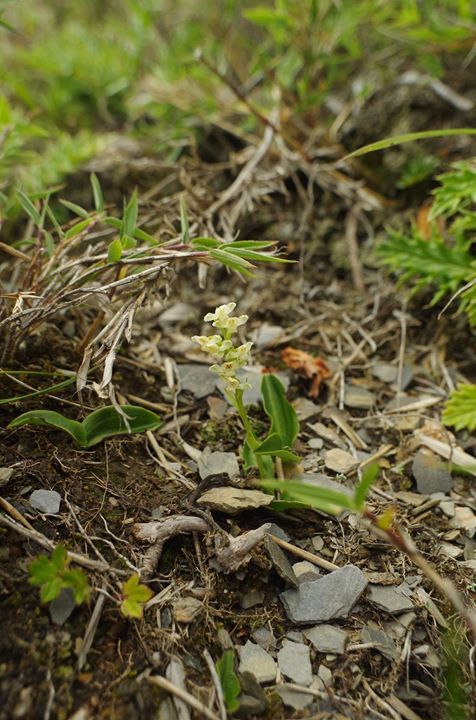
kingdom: Plantae
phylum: Tracheophyta
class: Liliopsida
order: Asparagales
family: Orchidaceae
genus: Platanthera
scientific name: Platanthera brevicalcarata
